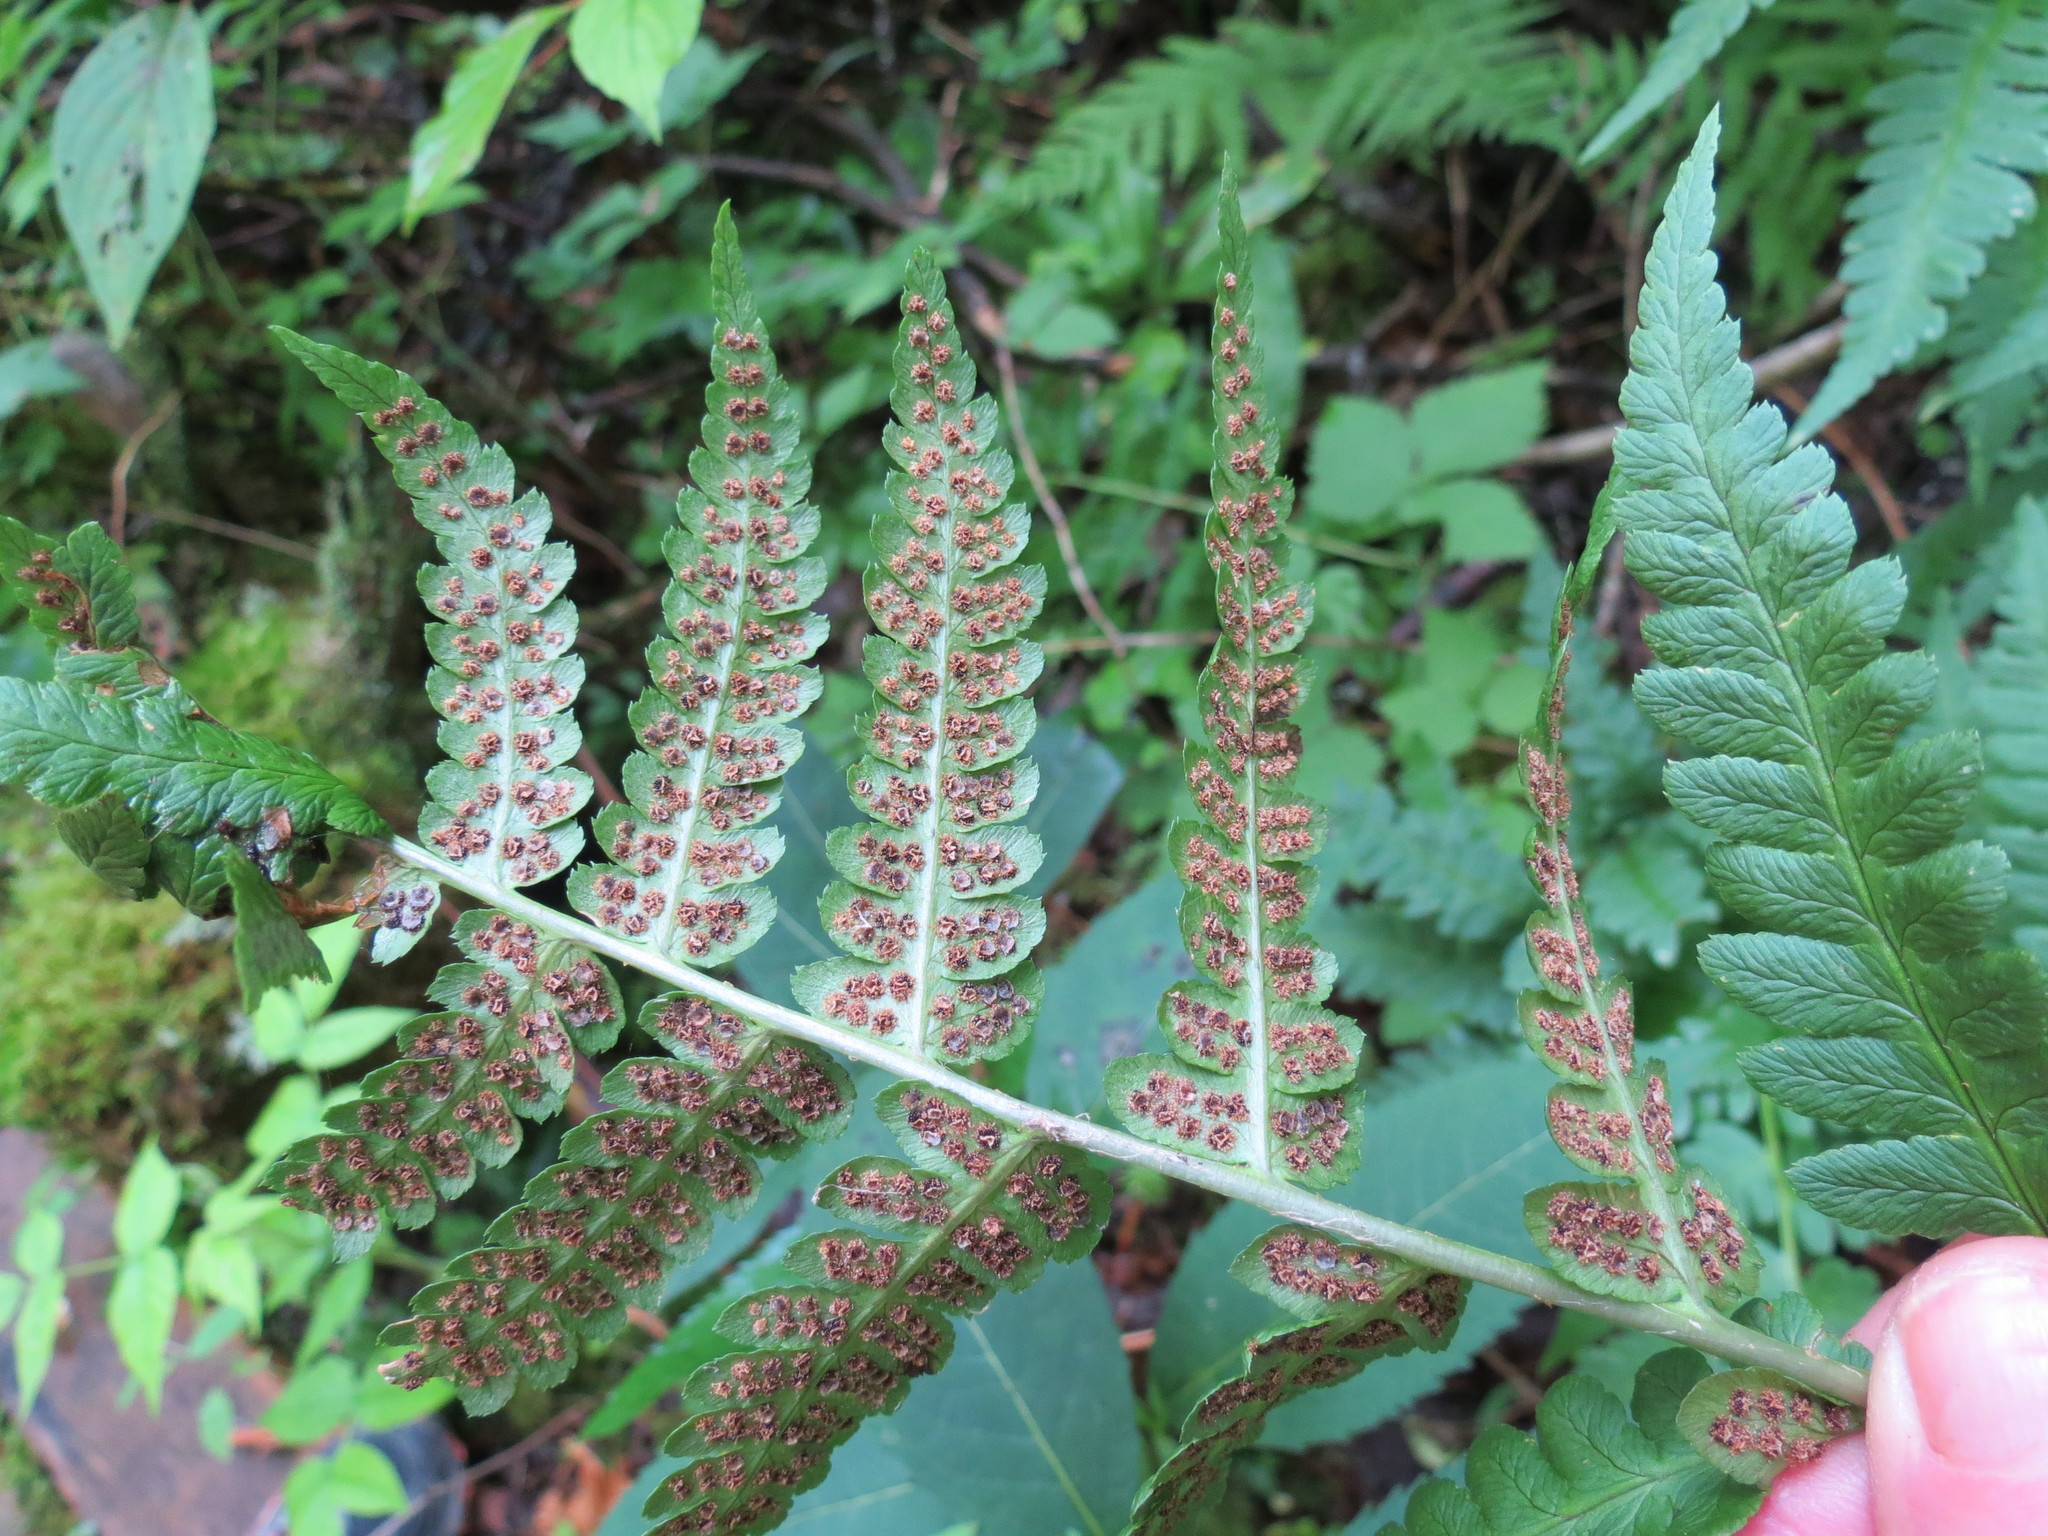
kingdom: Plantae
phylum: Tracheophyta
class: Polypodiopsida
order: Polypodiales
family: Dryopteridaceae
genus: Dryopteris
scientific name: Dryopteris goldieana
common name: Goldie's fern
